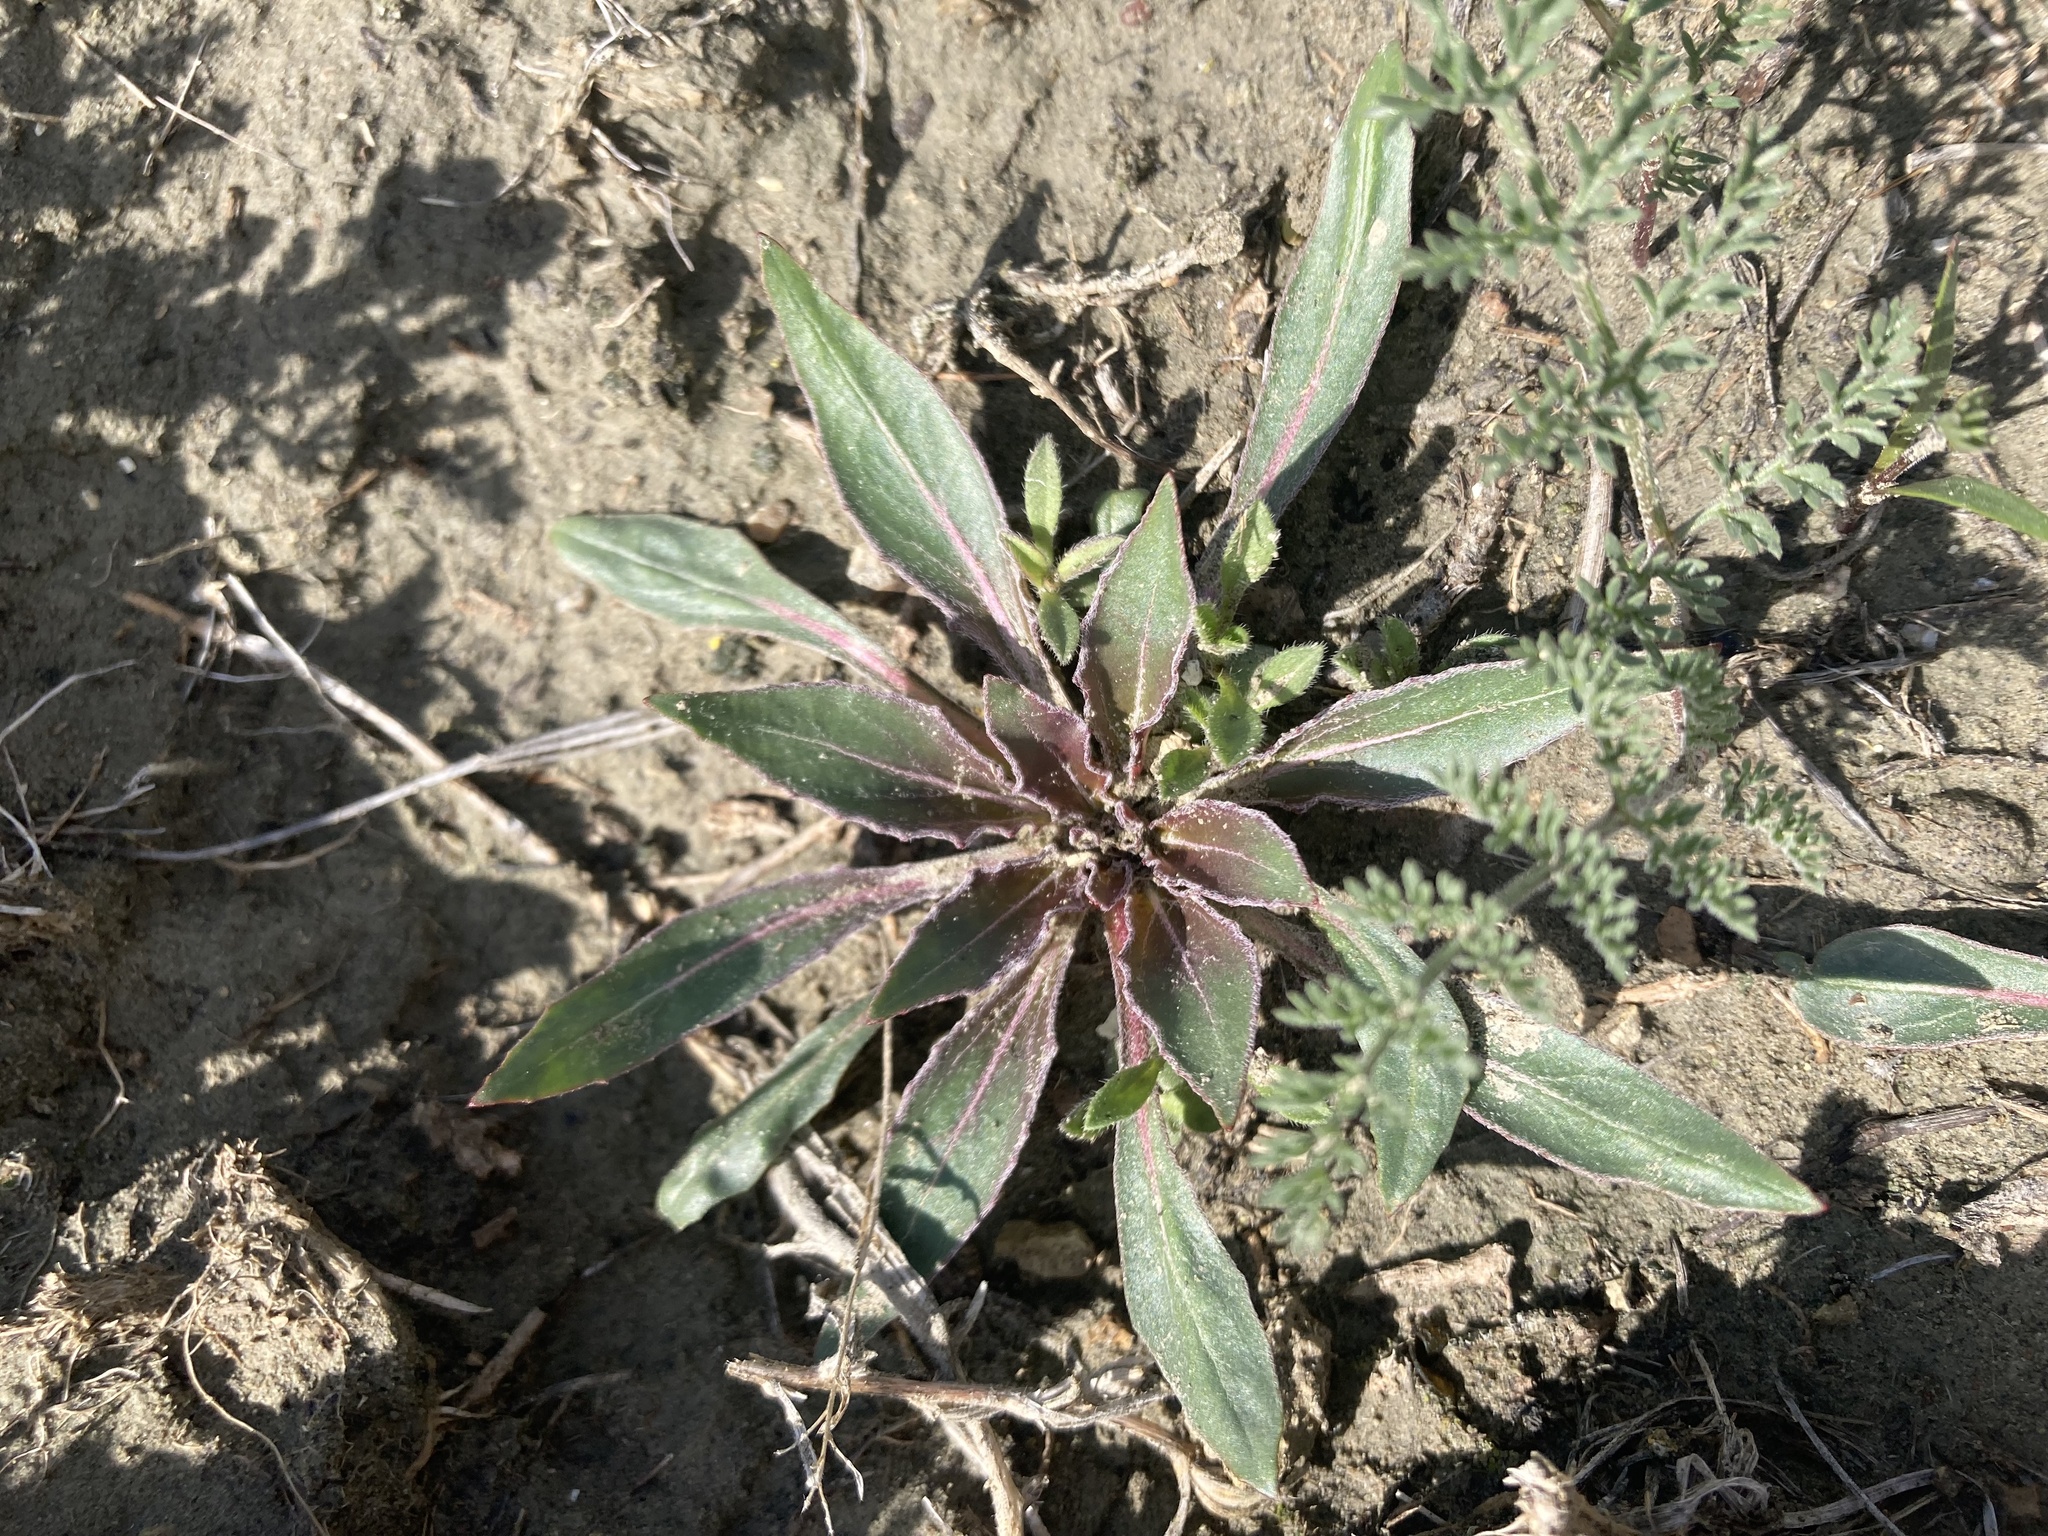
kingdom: Plantae
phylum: Tracheophyta
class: Magnoliopsida
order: Myrtales
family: Onagraceae
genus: Oenothera
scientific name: Oenothera cespitosa
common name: Tufted evening-primrose
